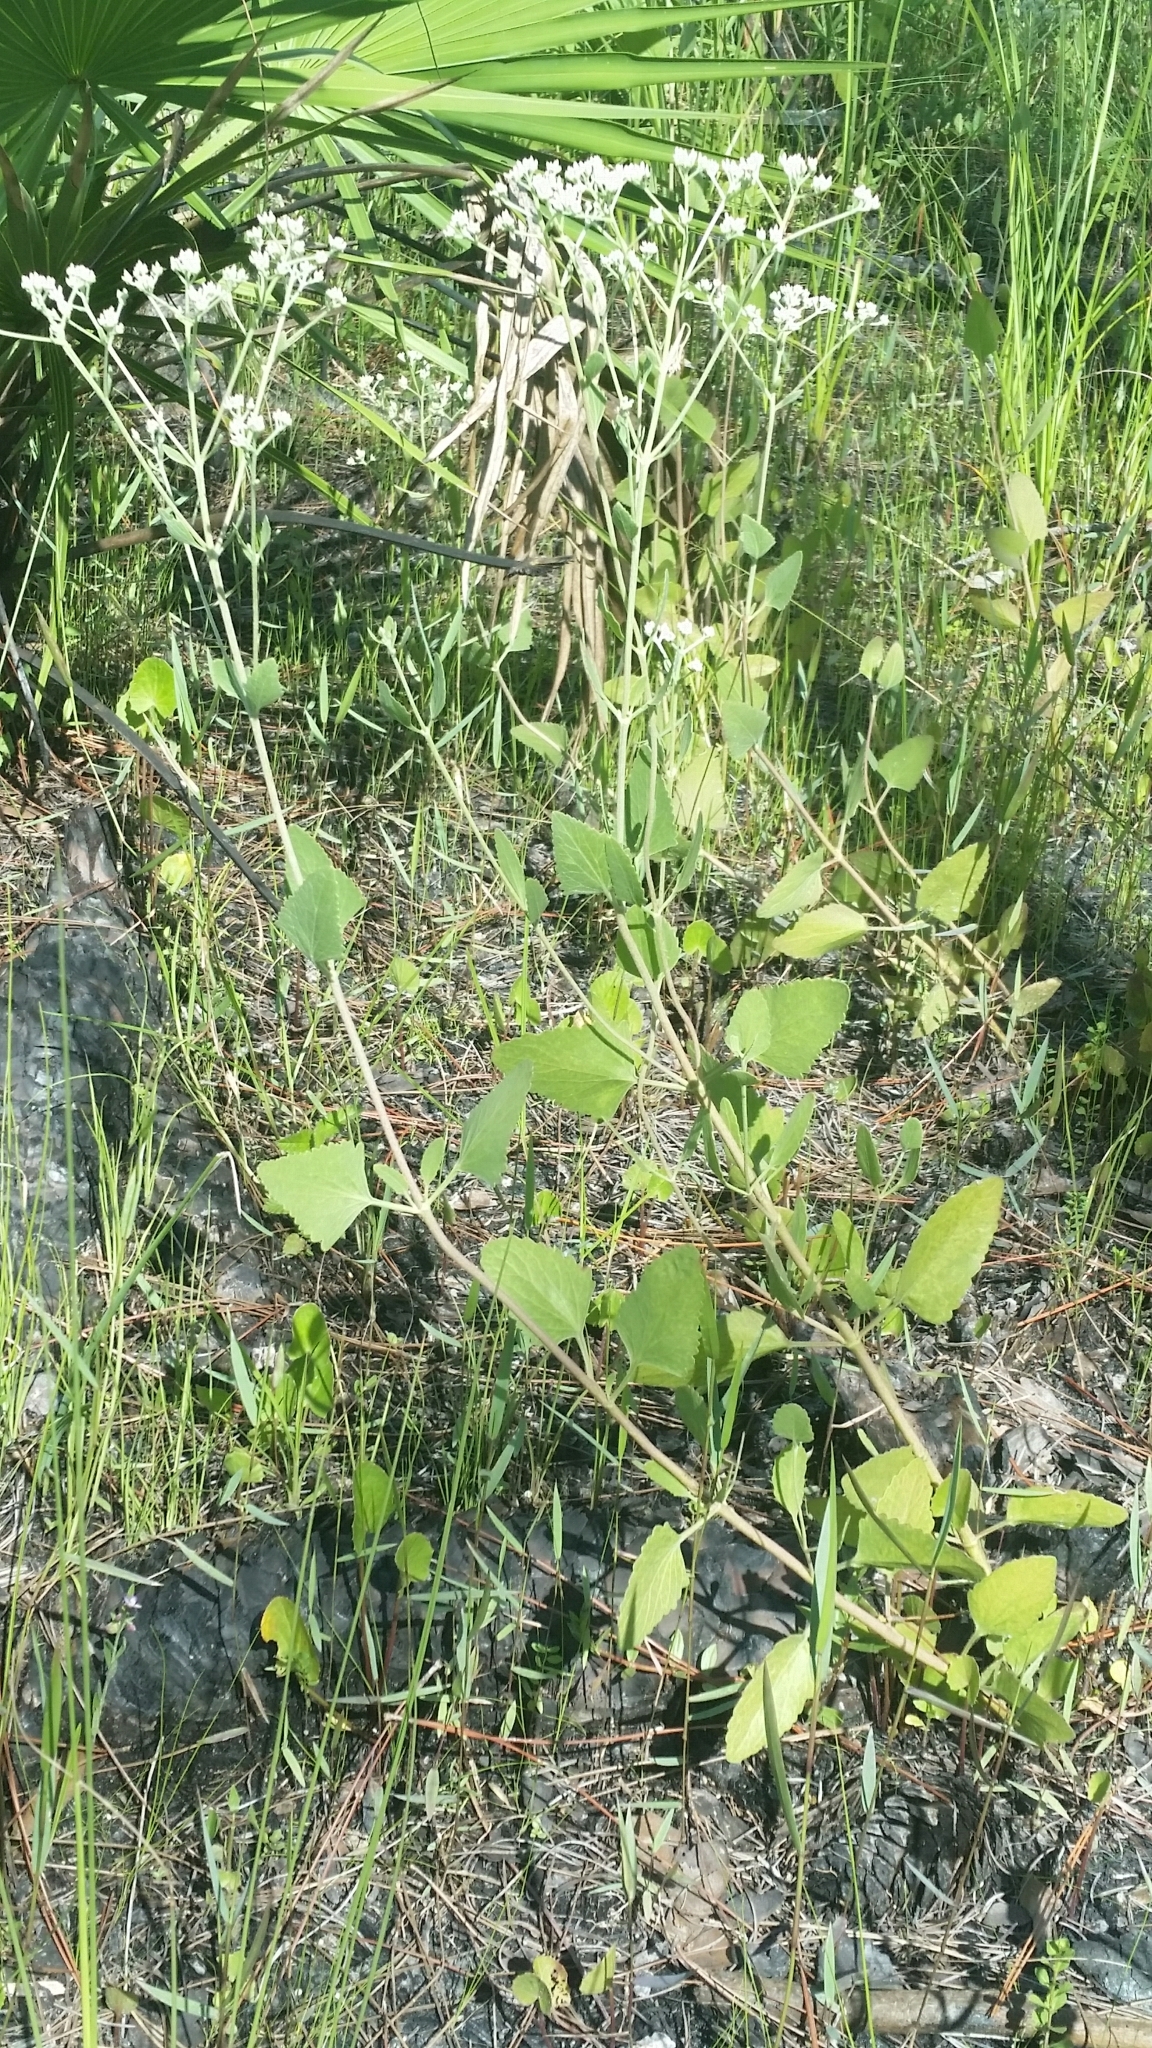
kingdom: Plantae
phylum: Tracheophyta
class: Magnoliopsida
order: Asterales
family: Asteraceae
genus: Eupatorium
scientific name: Eupatorium mikanioides
